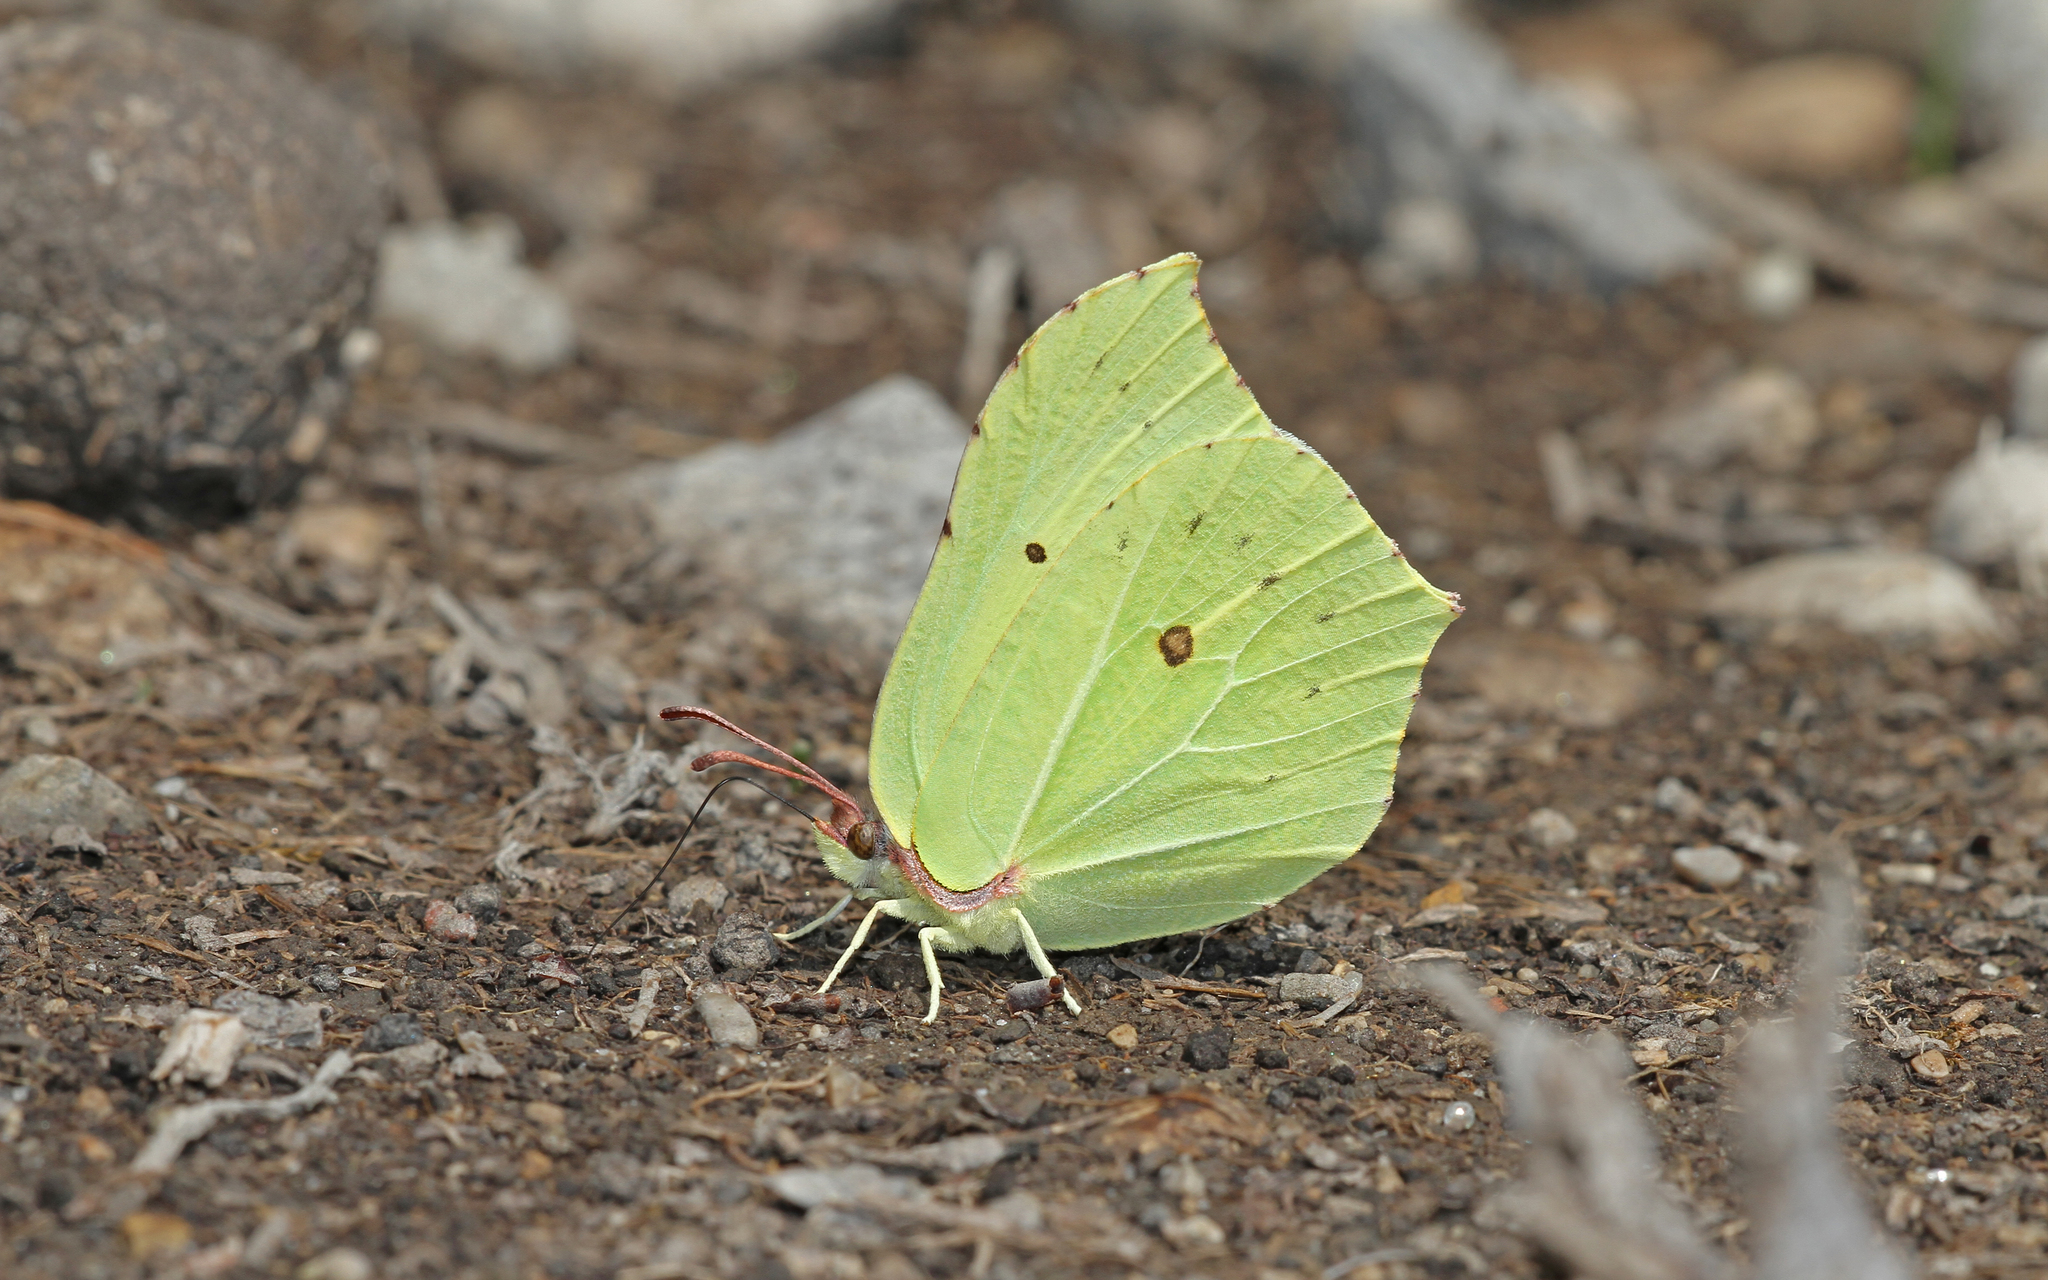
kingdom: Animalia
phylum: Arthropoda
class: Insecta
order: Lepidoptera
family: Pieridae
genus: Gonepteryx
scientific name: Gonepteryx rhamni
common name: Brimstone
